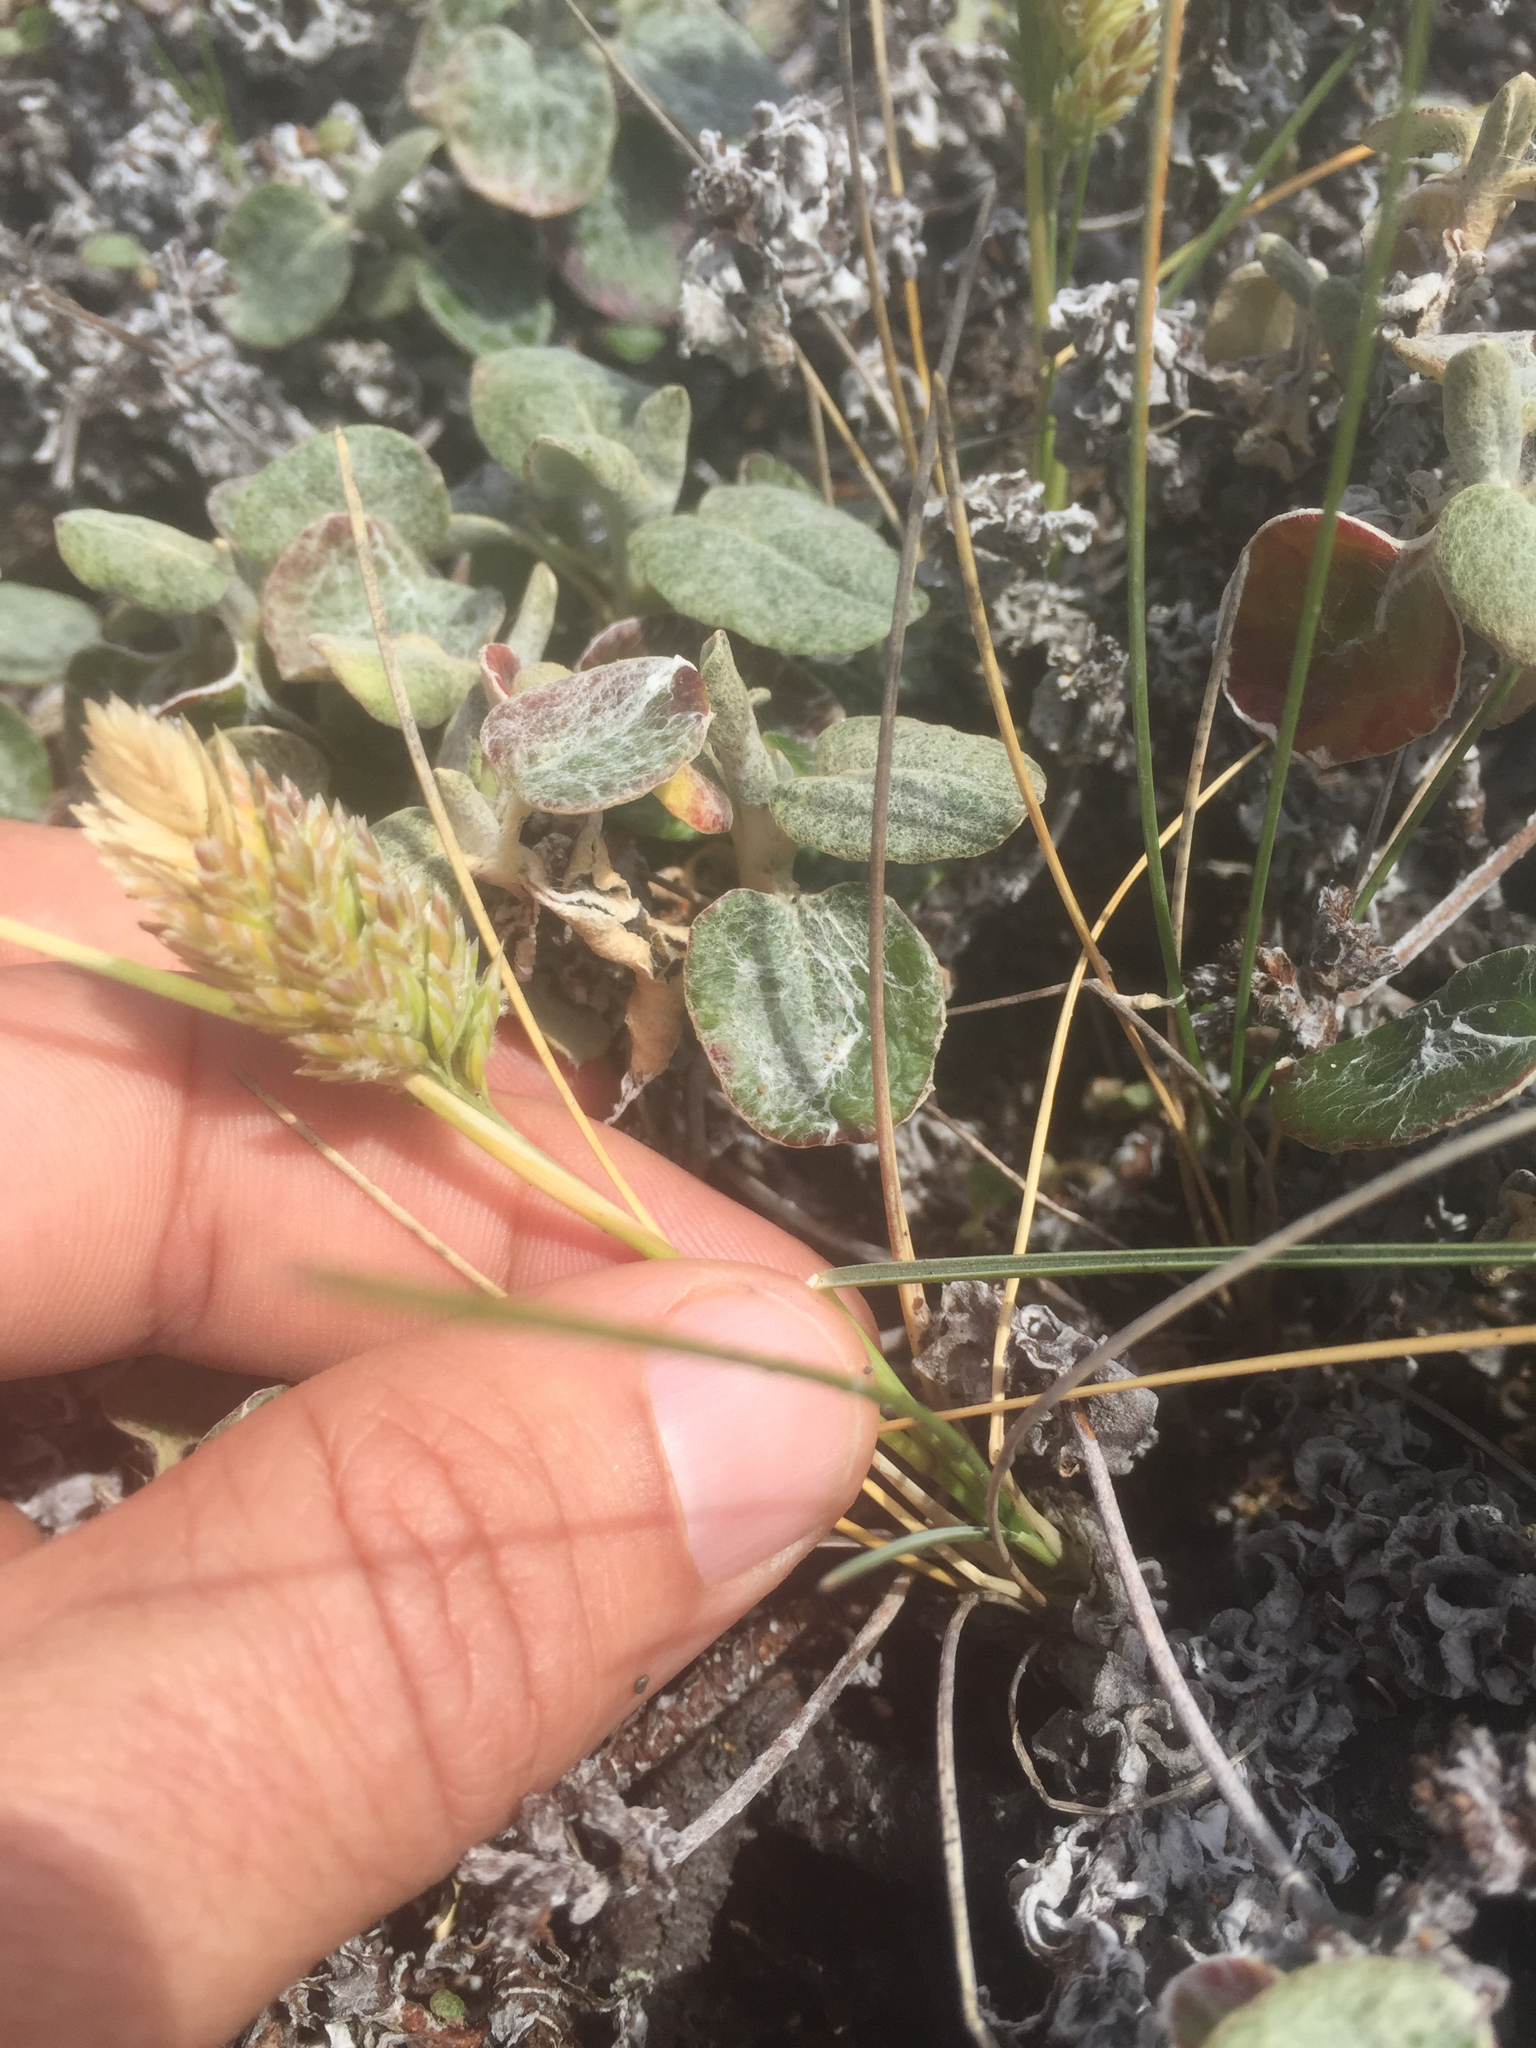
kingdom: Plantae
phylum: Tracheophyta
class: Liliopsida
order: Poales
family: Poaceae
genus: Poa
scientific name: Poa douglasii
